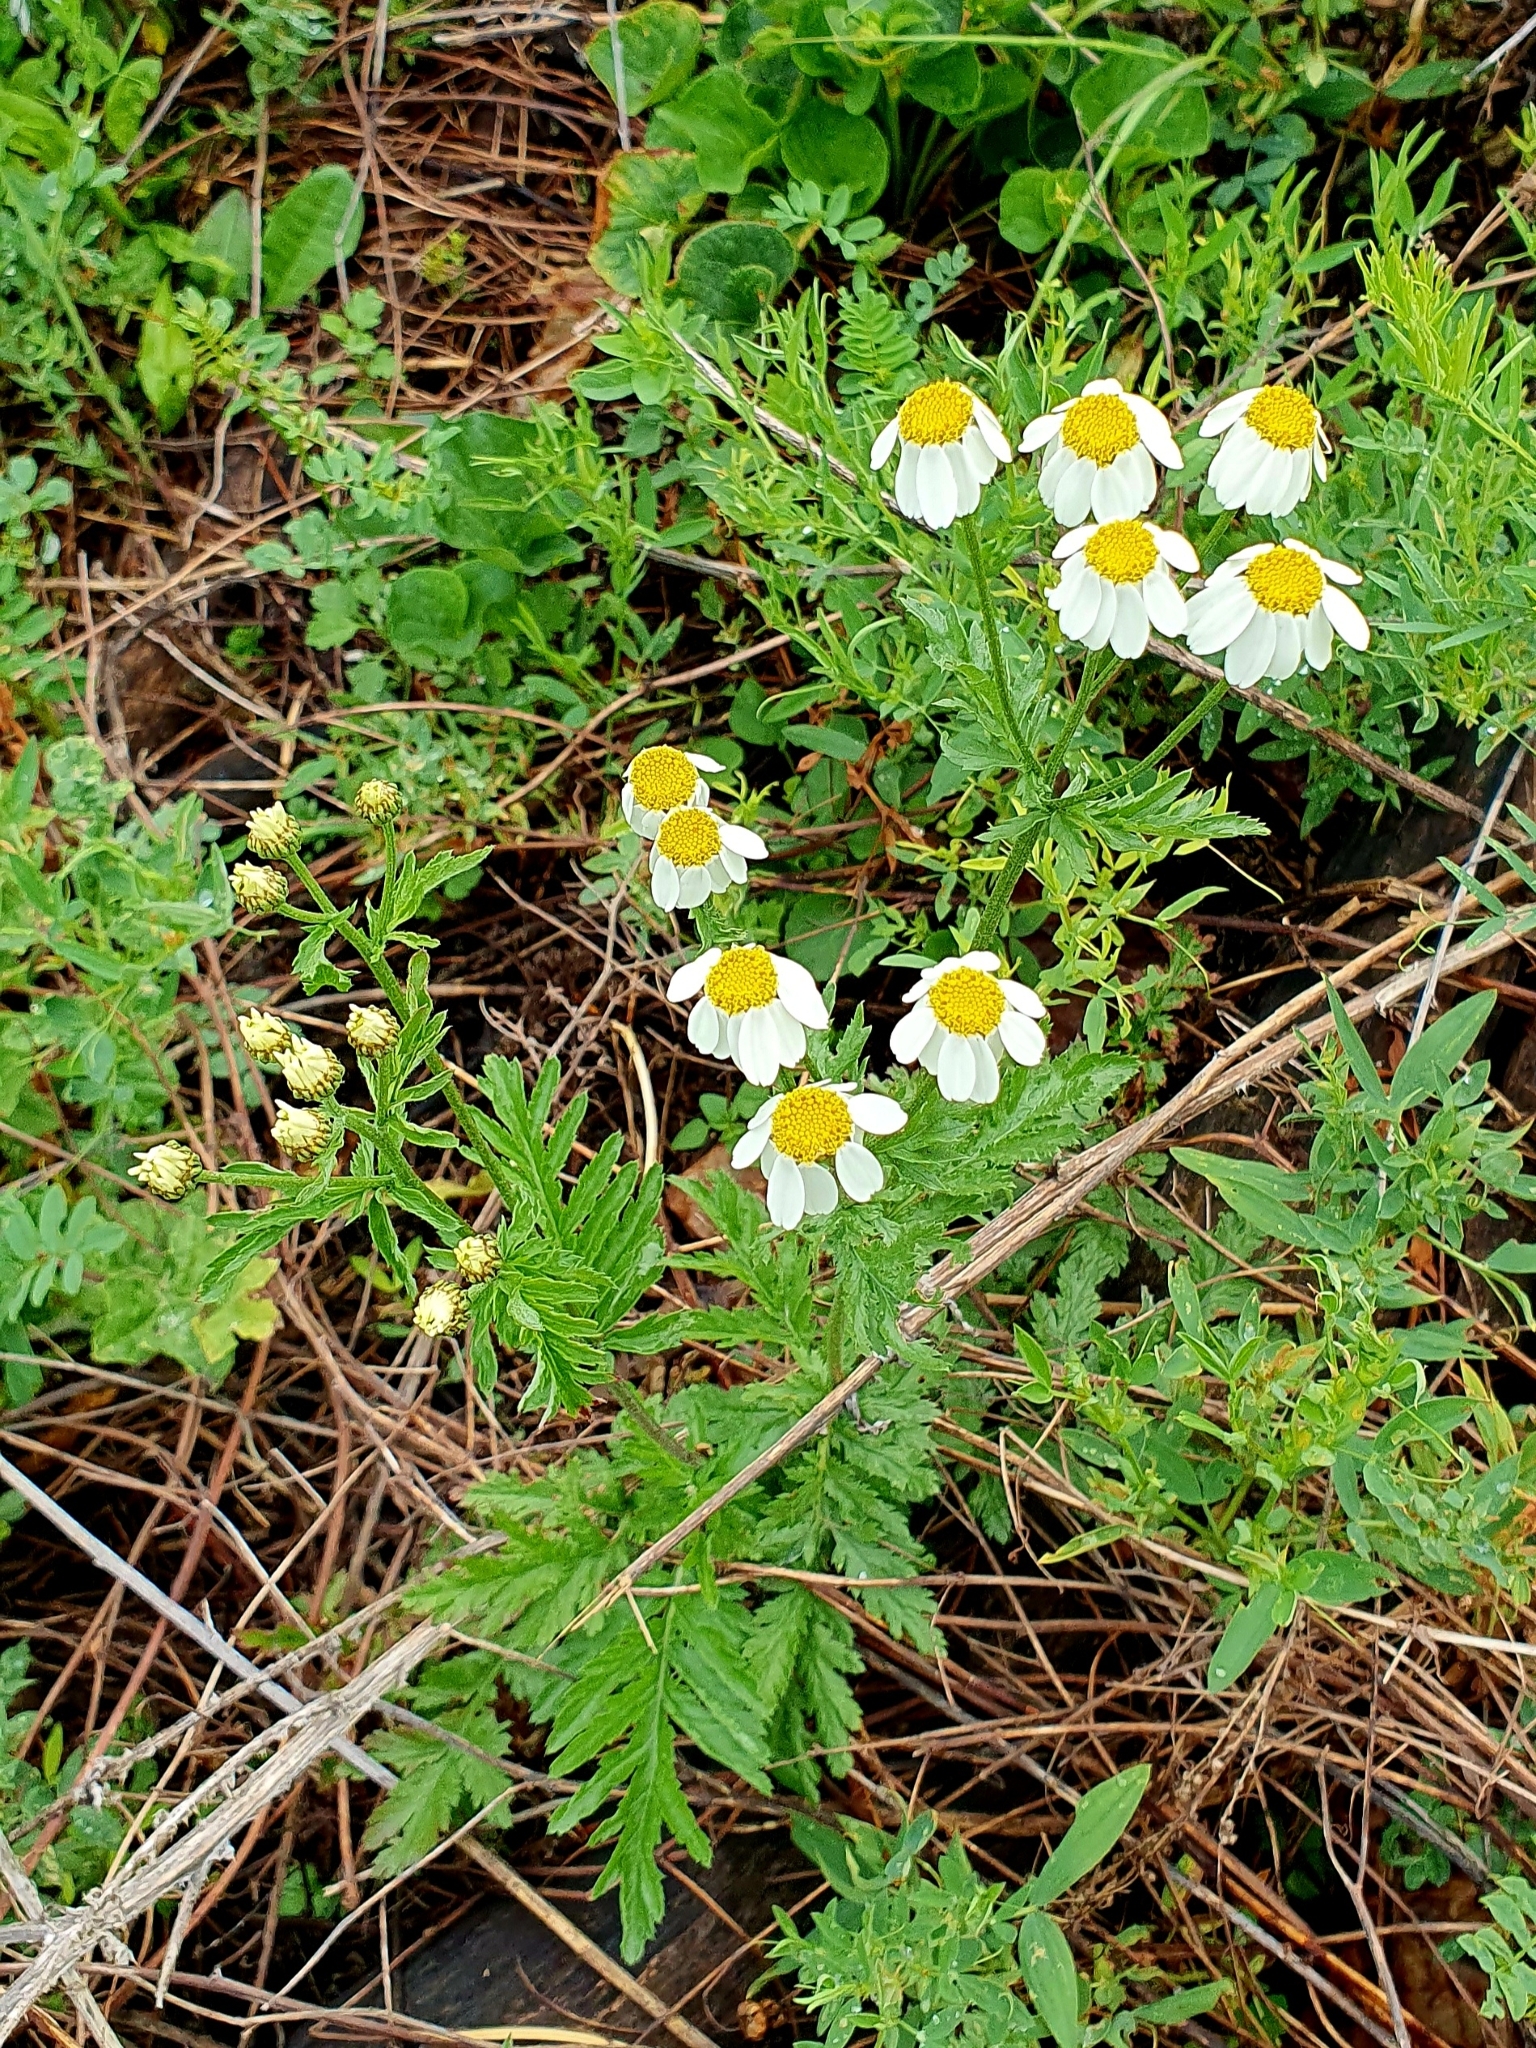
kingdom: Plantae
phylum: Tracheophyta
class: Magnoliopsida
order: Asterales
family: Asteraceae
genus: Tanacetum
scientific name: Tanacetum corymbosum
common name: Scentless feverfew
